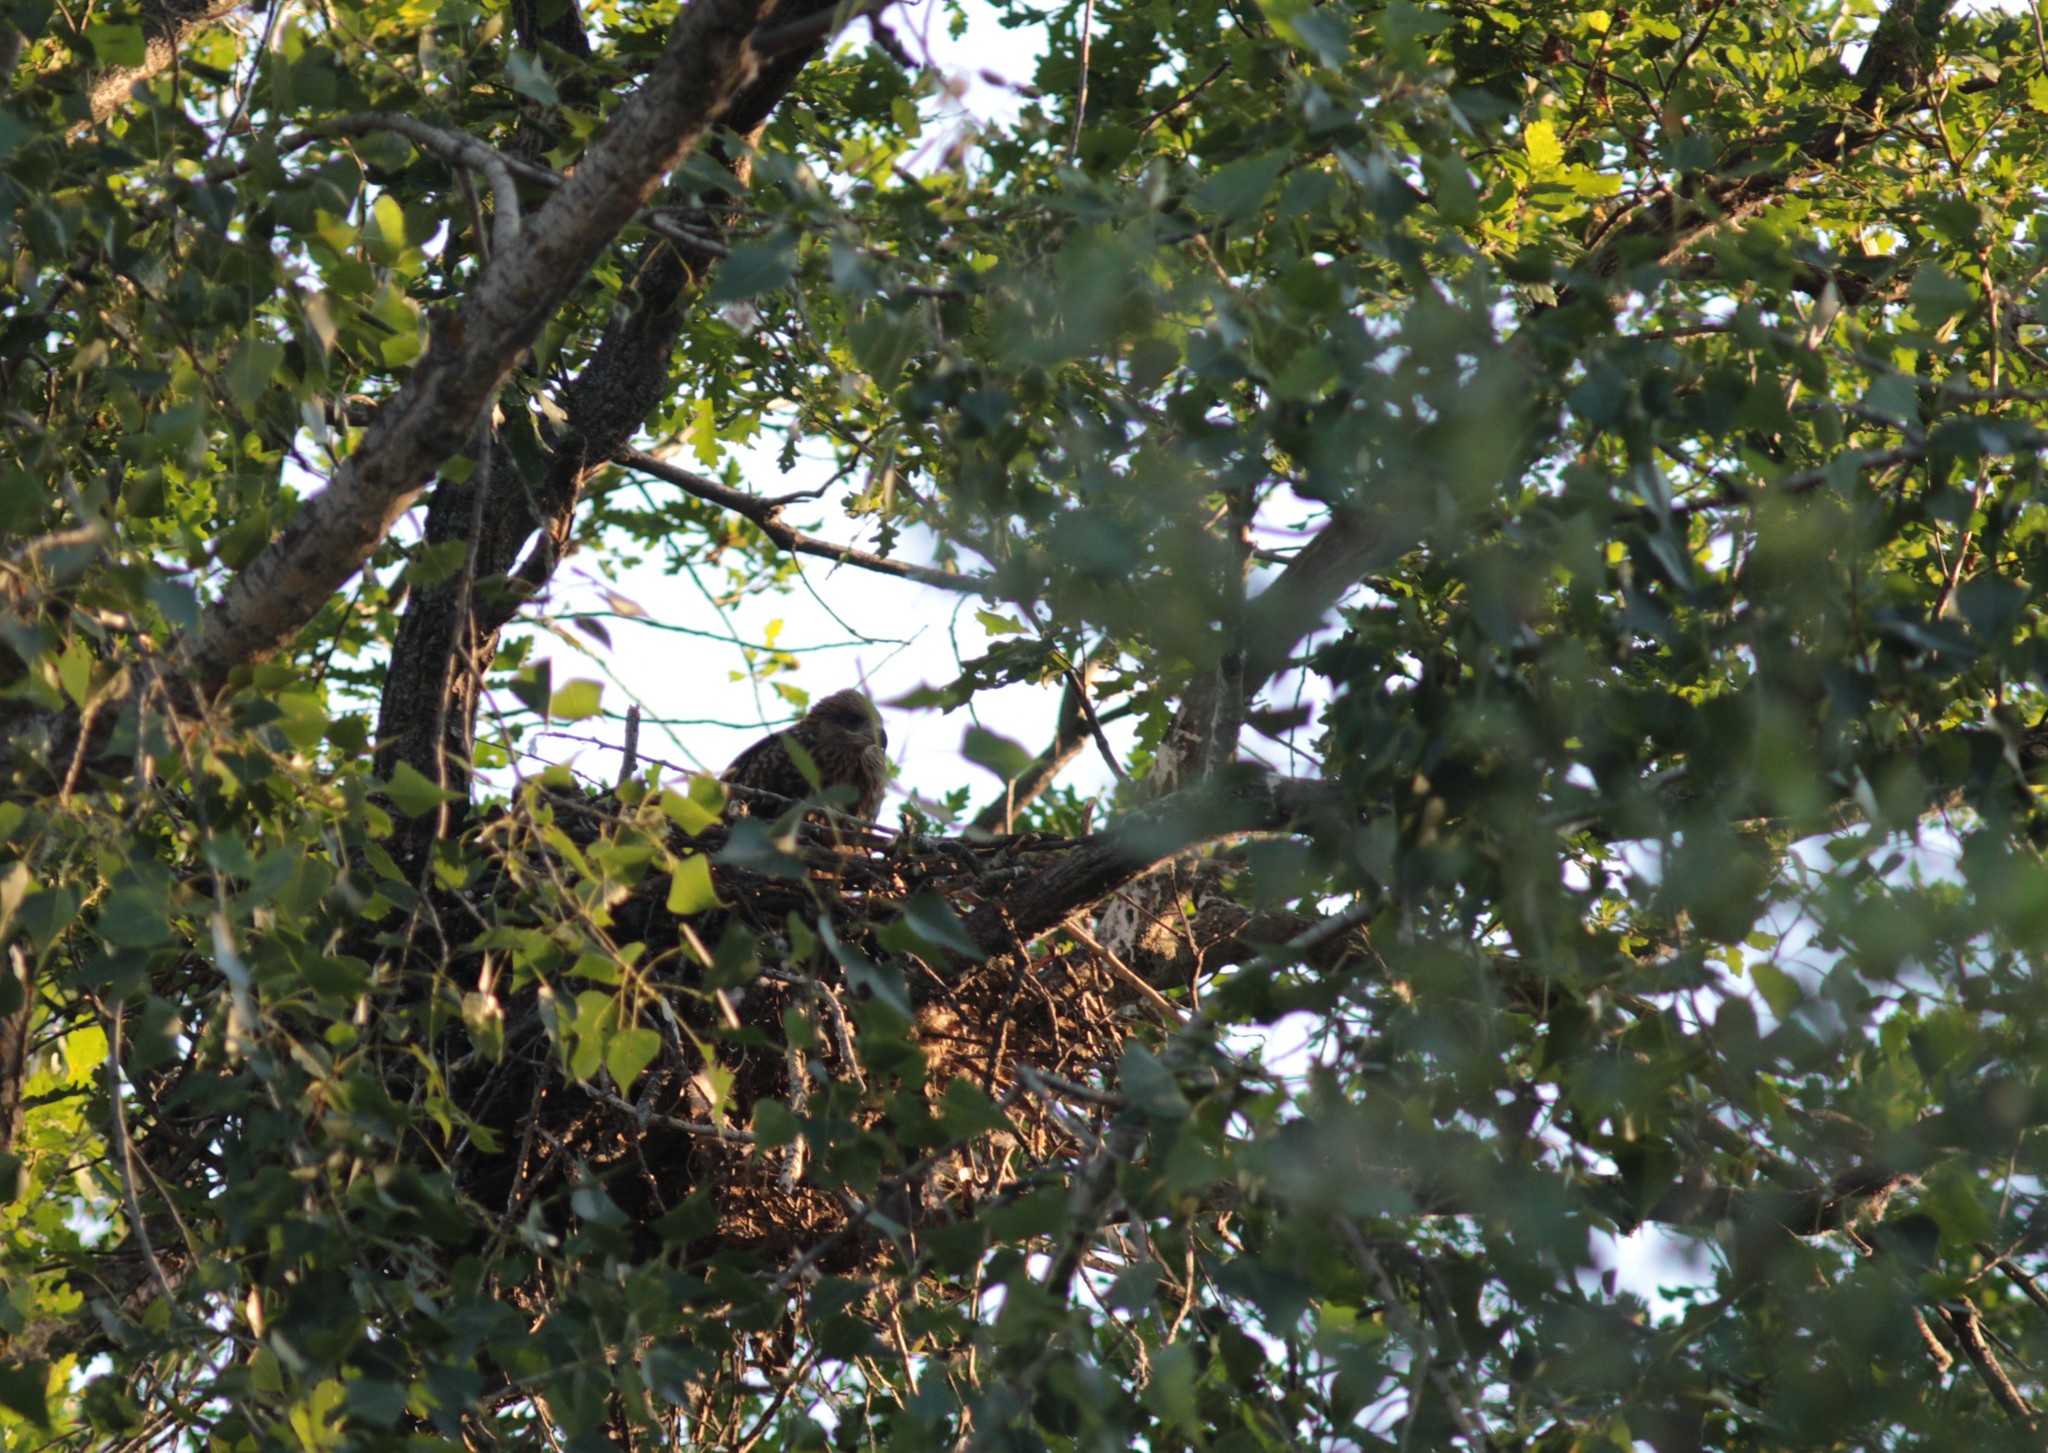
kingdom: Animalia
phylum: Chordata
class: Aves
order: Accipitriformes
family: Accipitridae
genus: Milvus
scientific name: Milvus migrans
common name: Black kite
